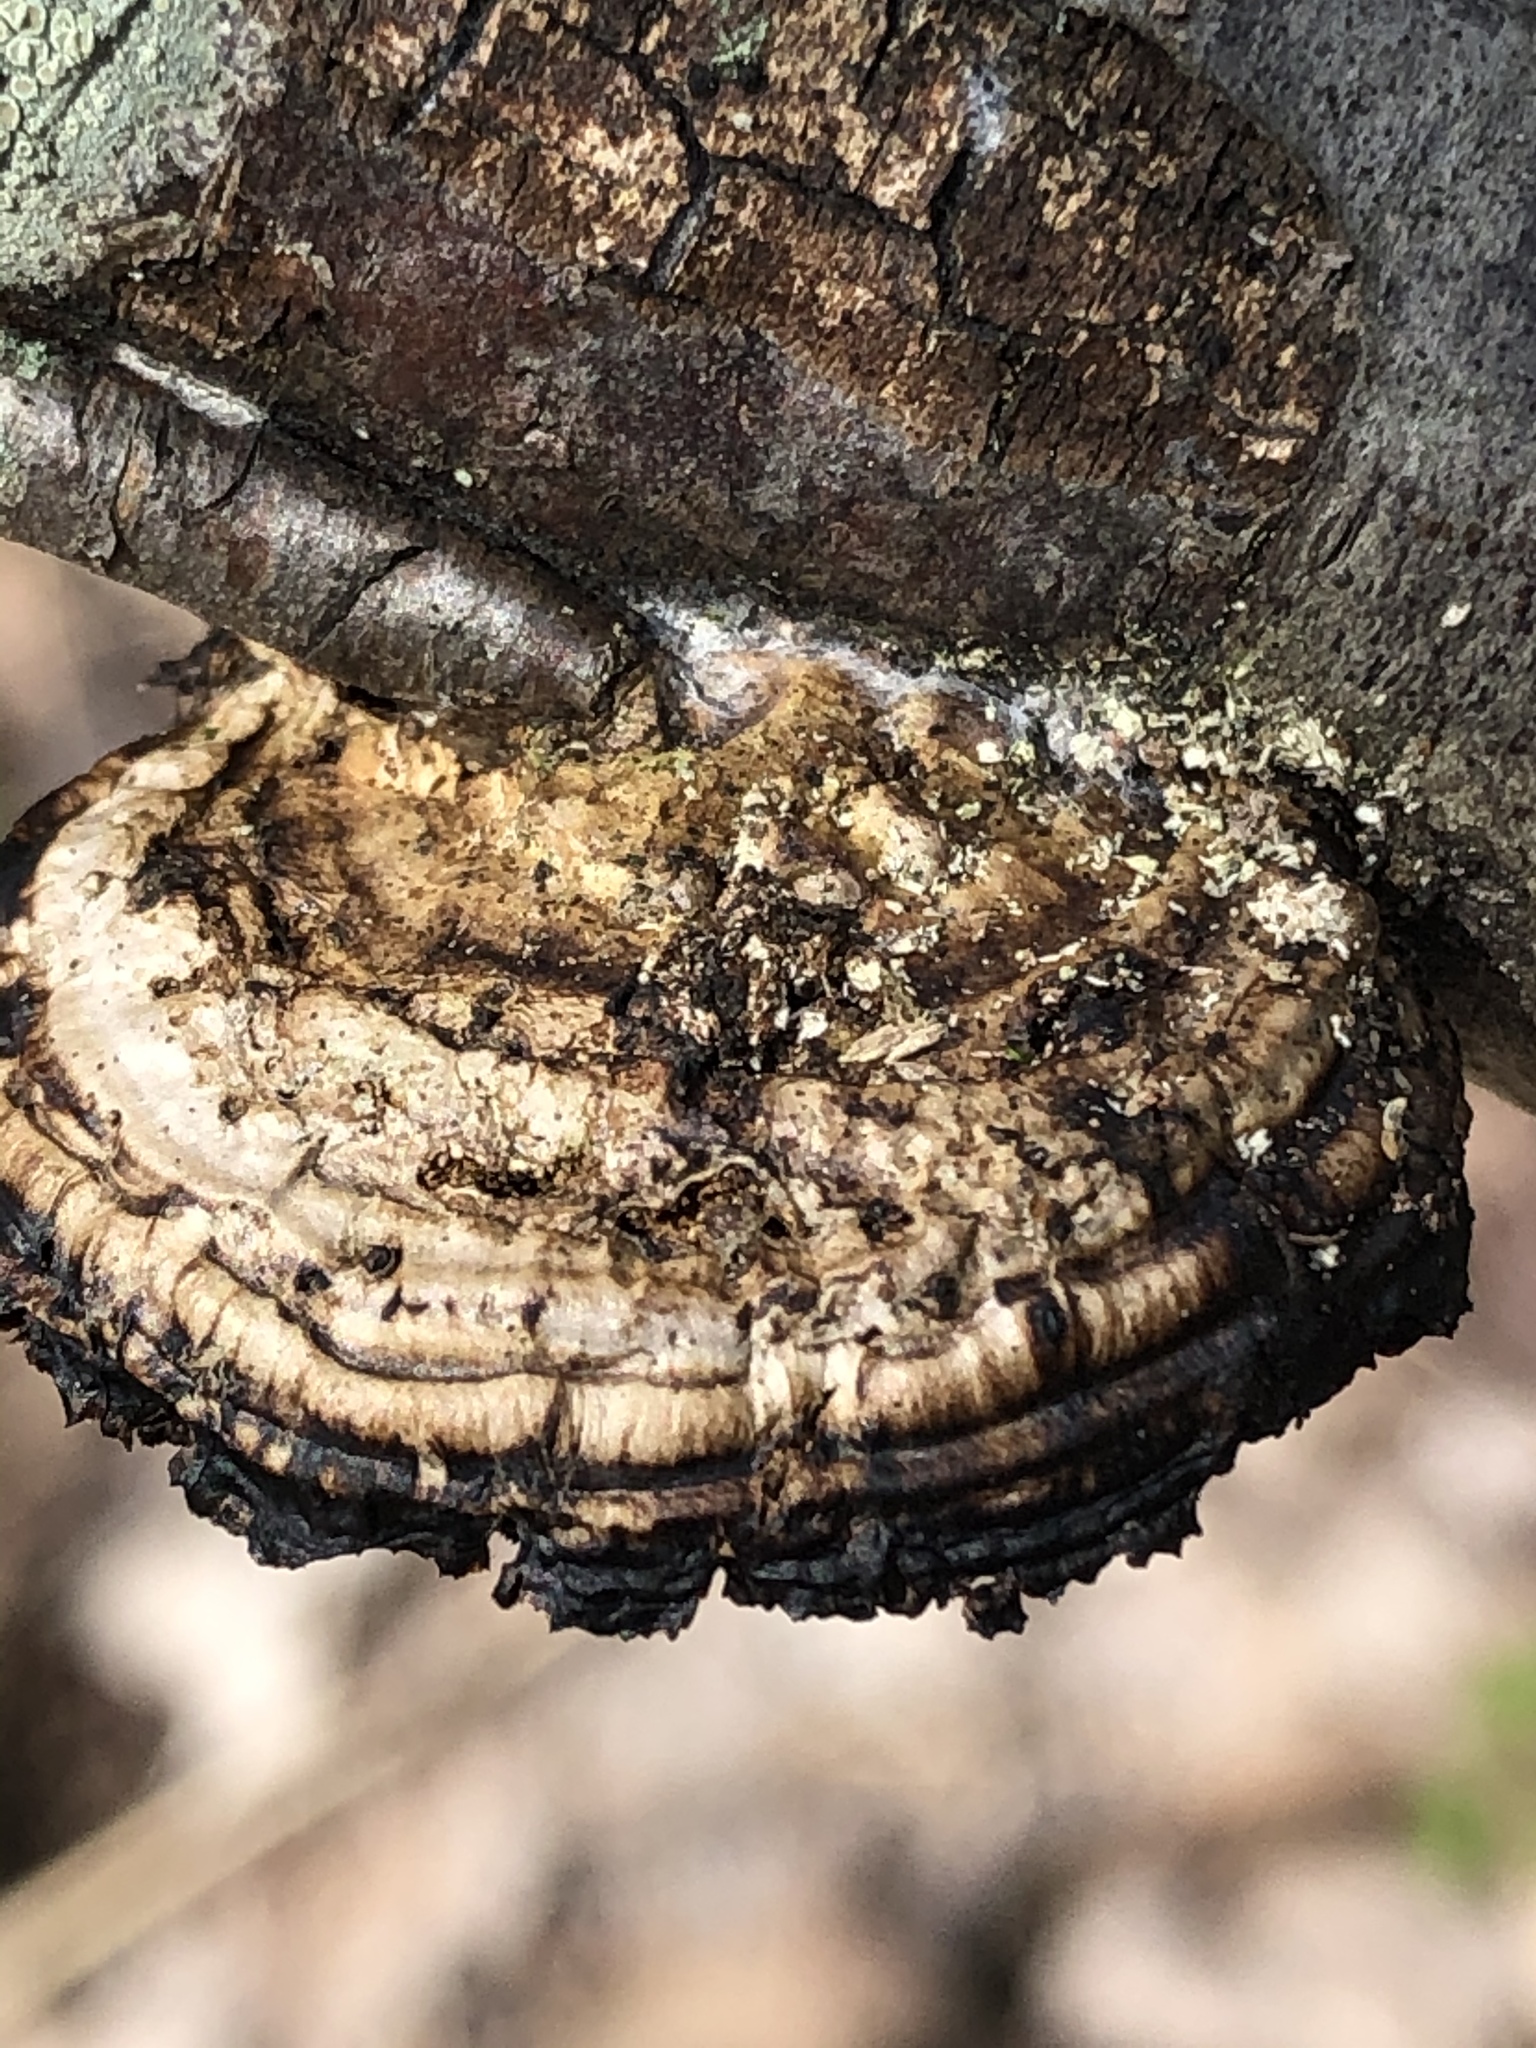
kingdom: Fungi
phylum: Basidiomycota
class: Agaricomycetes
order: Polyporales
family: Polyporaceae
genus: Daedaleopsis
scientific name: Daedaleopsis confragosa
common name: Blushing bracket
